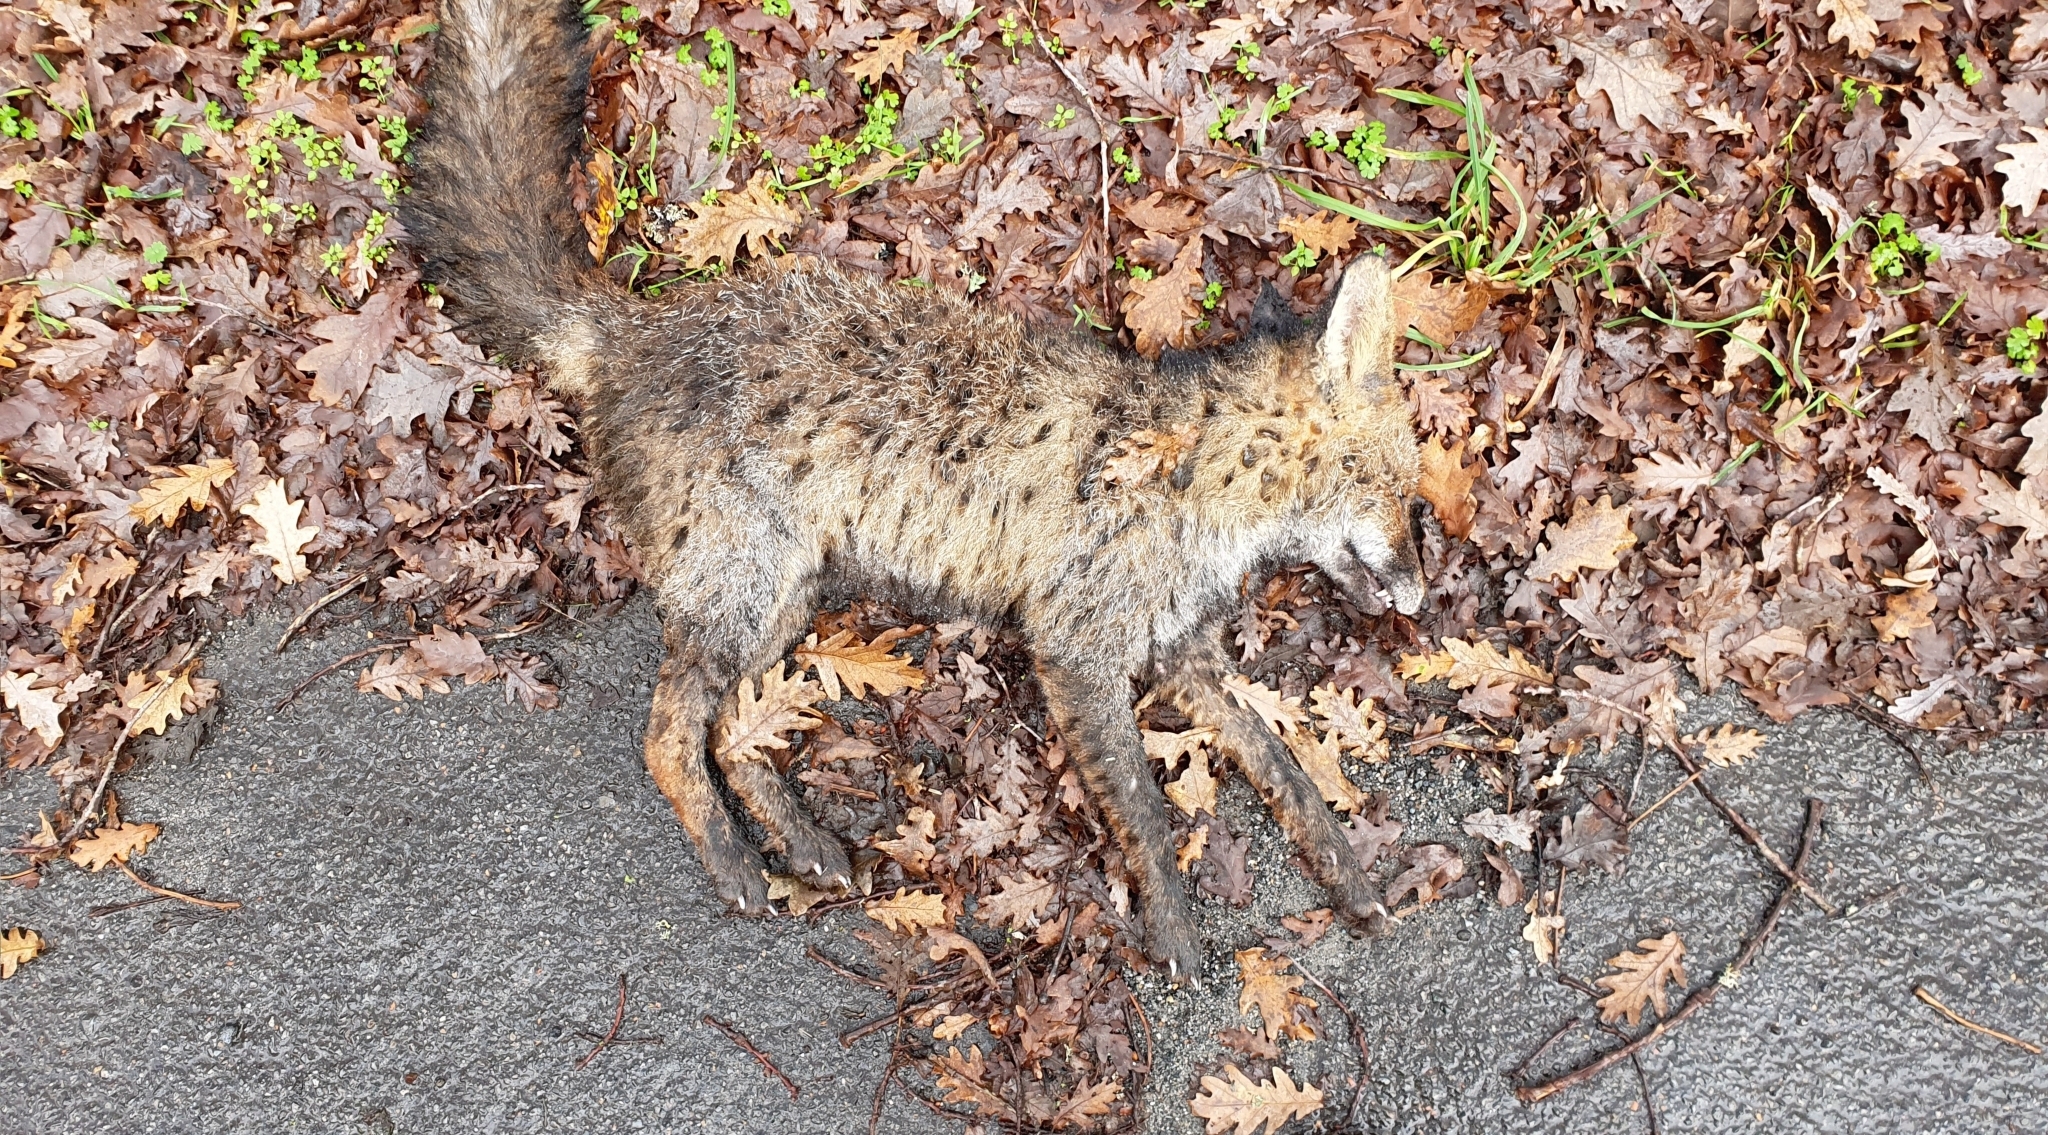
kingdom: Animalia
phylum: Chordata
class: Mammalia
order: Carnivora
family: Canidae
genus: Vulpes
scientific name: Vulpes vulpes
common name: Red fox
